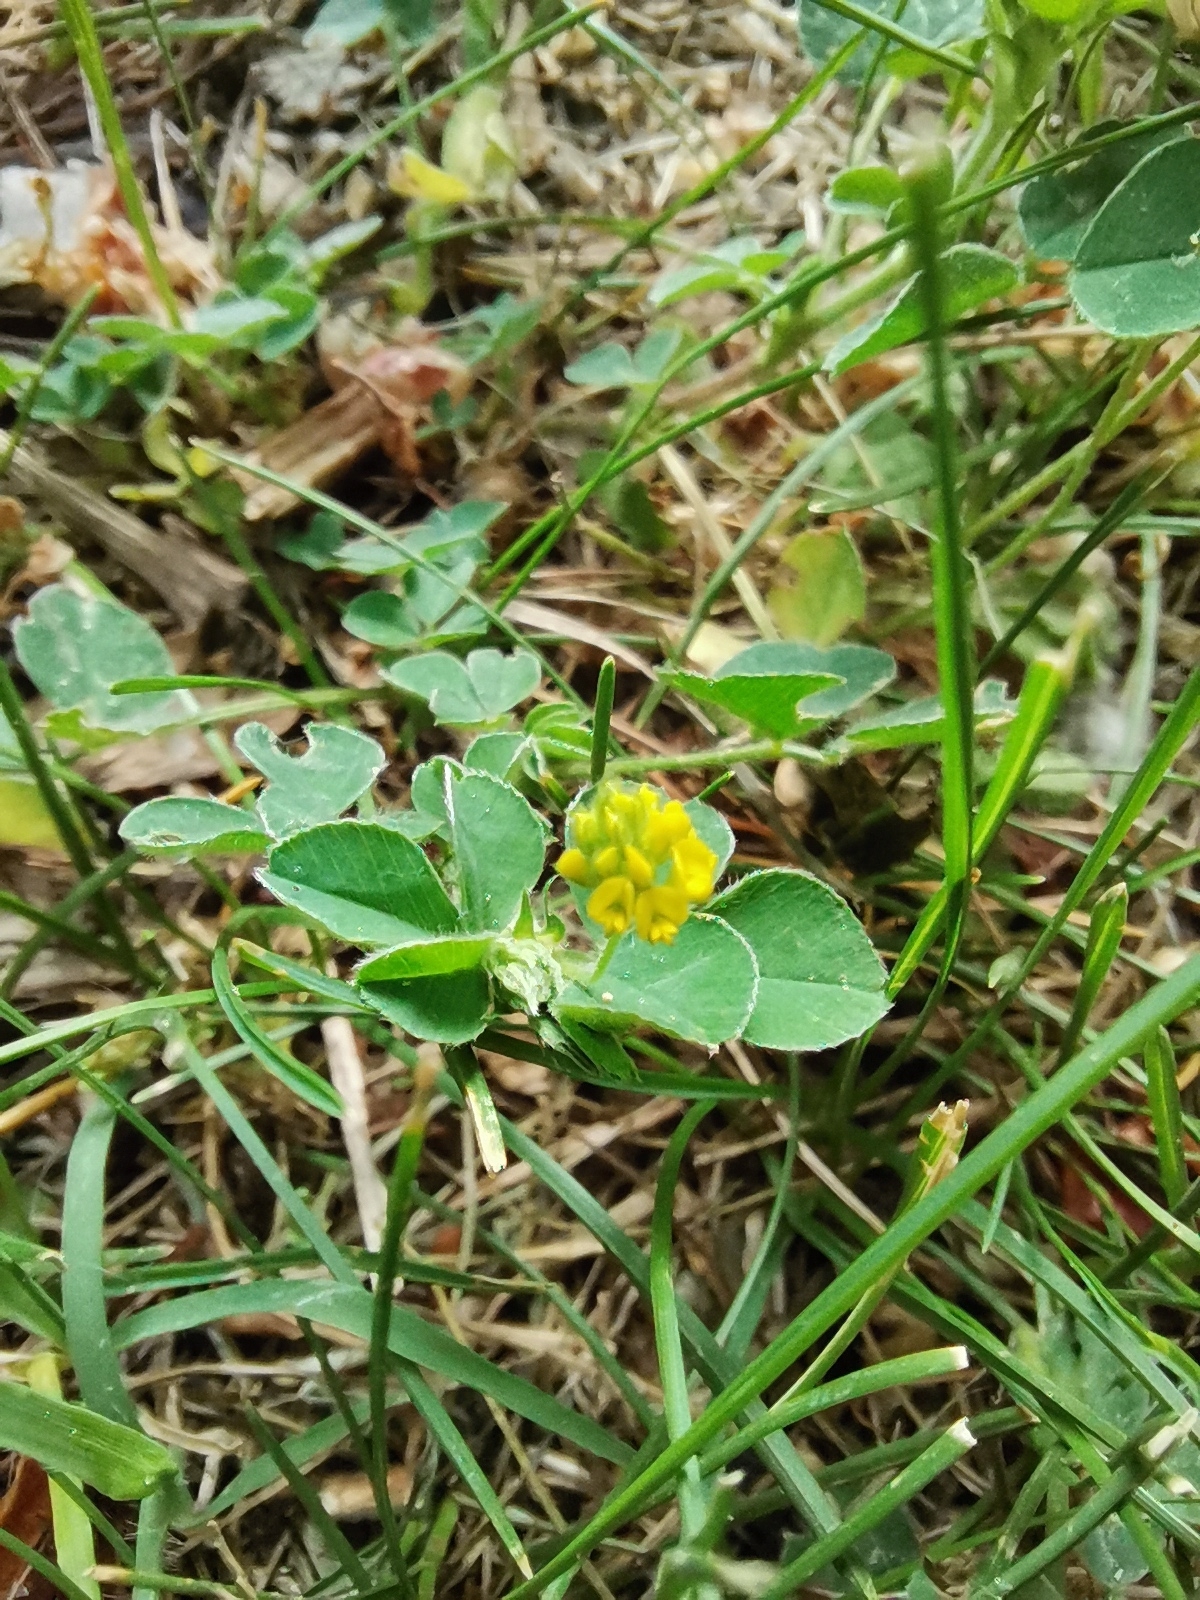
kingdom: Plantae
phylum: Tracheophyta
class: Magnoliopsida
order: Fabales
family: Fabaceae
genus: Medicago
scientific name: Medicago lupulina
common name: Black medick
